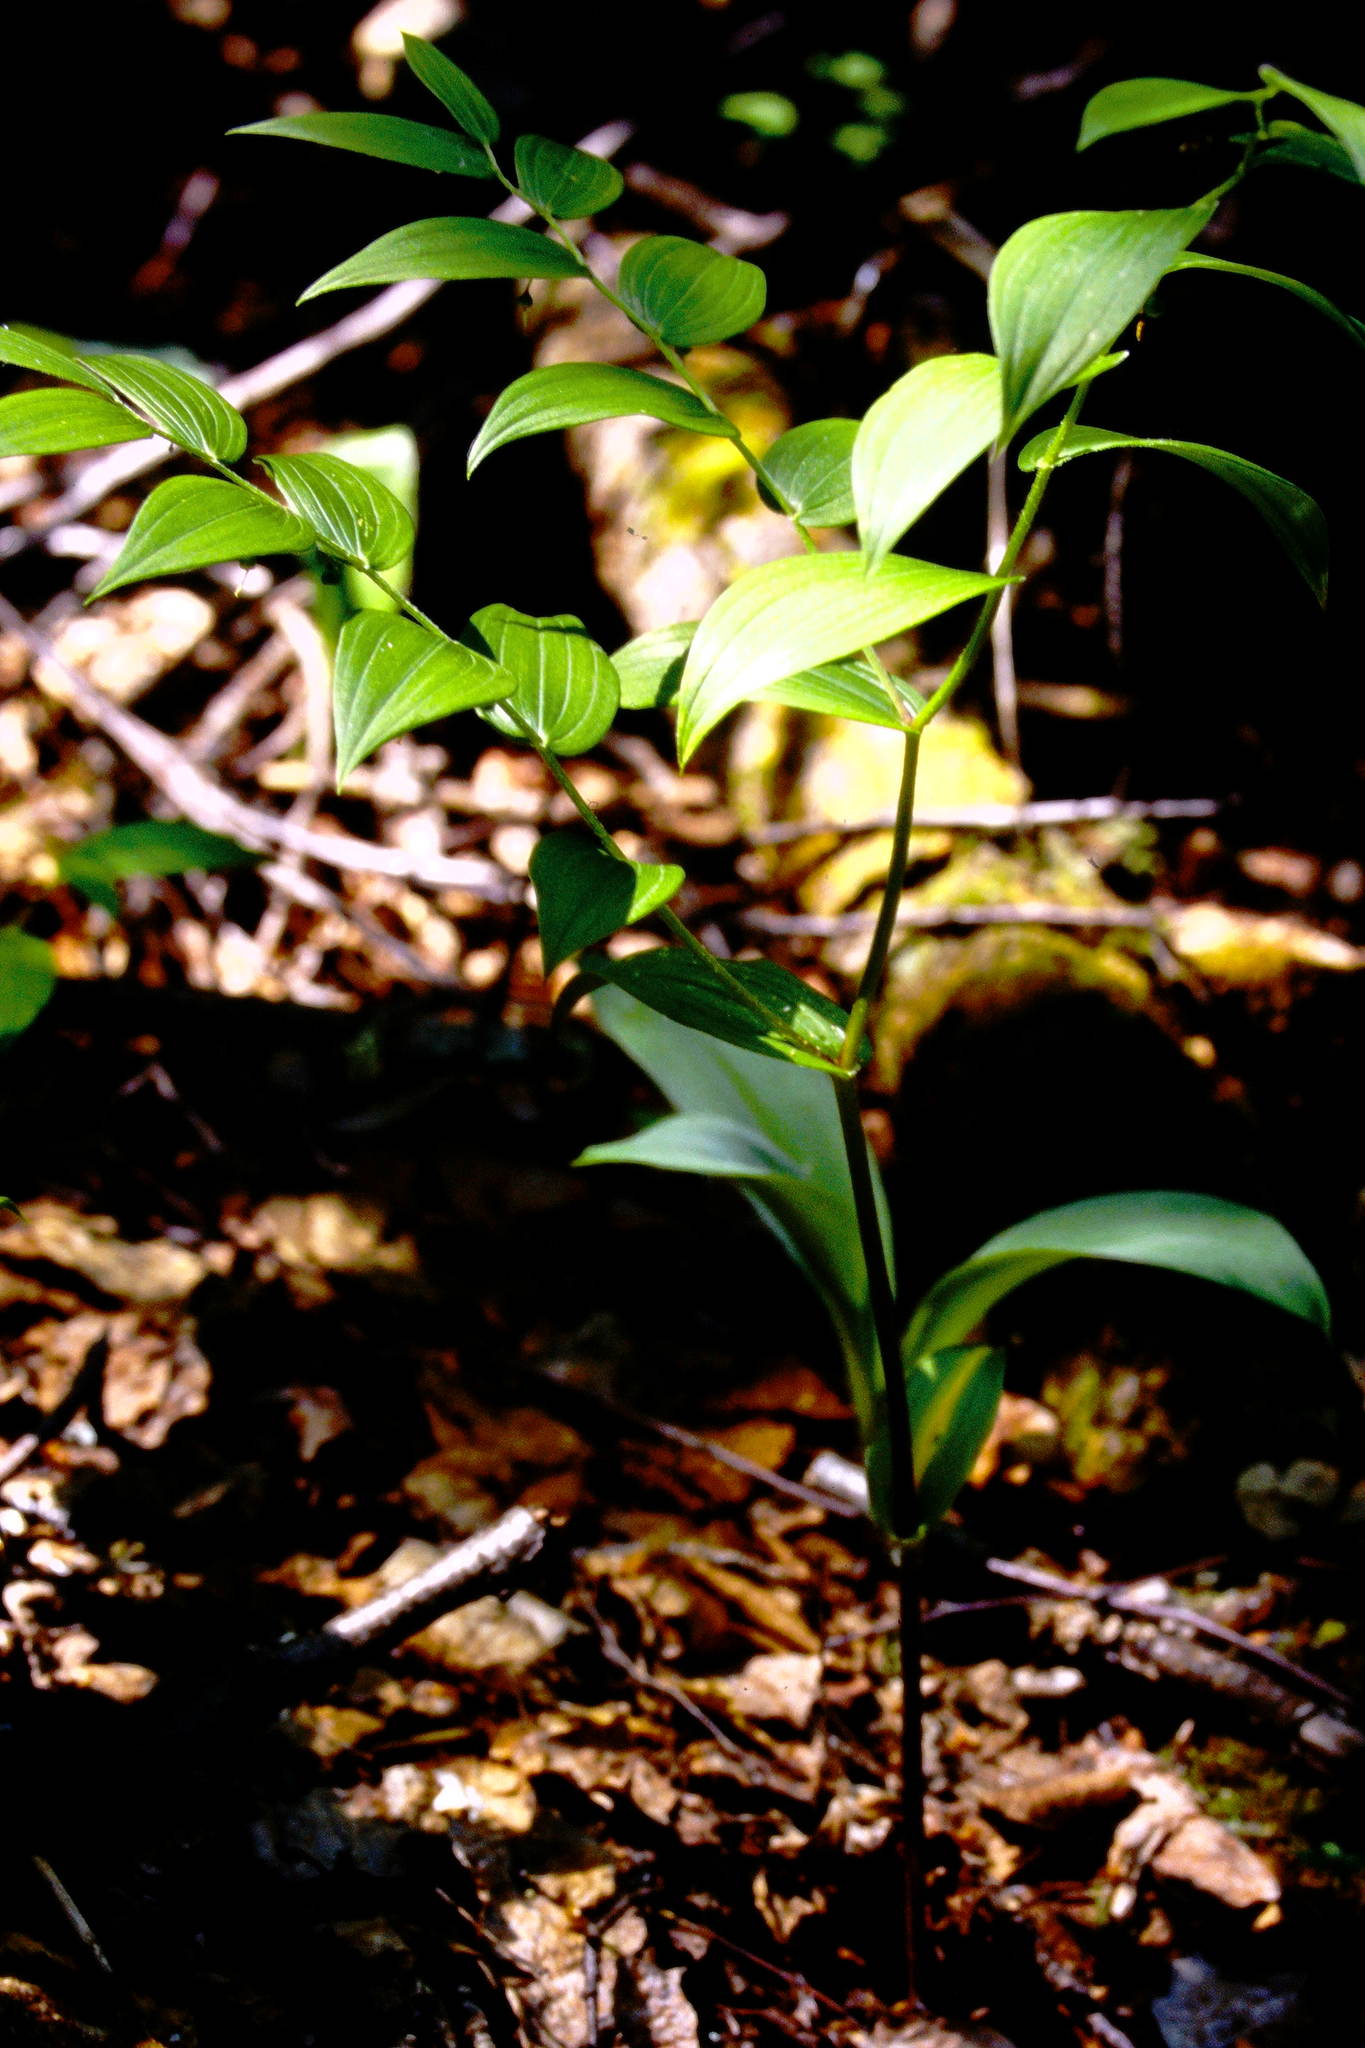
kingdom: Plantae
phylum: Tracheophyta
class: Liliopsida
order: Liliales
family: Liliaceae
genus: Streptopus
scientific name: Streptopus lanceolatus
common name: Rose mandarin
